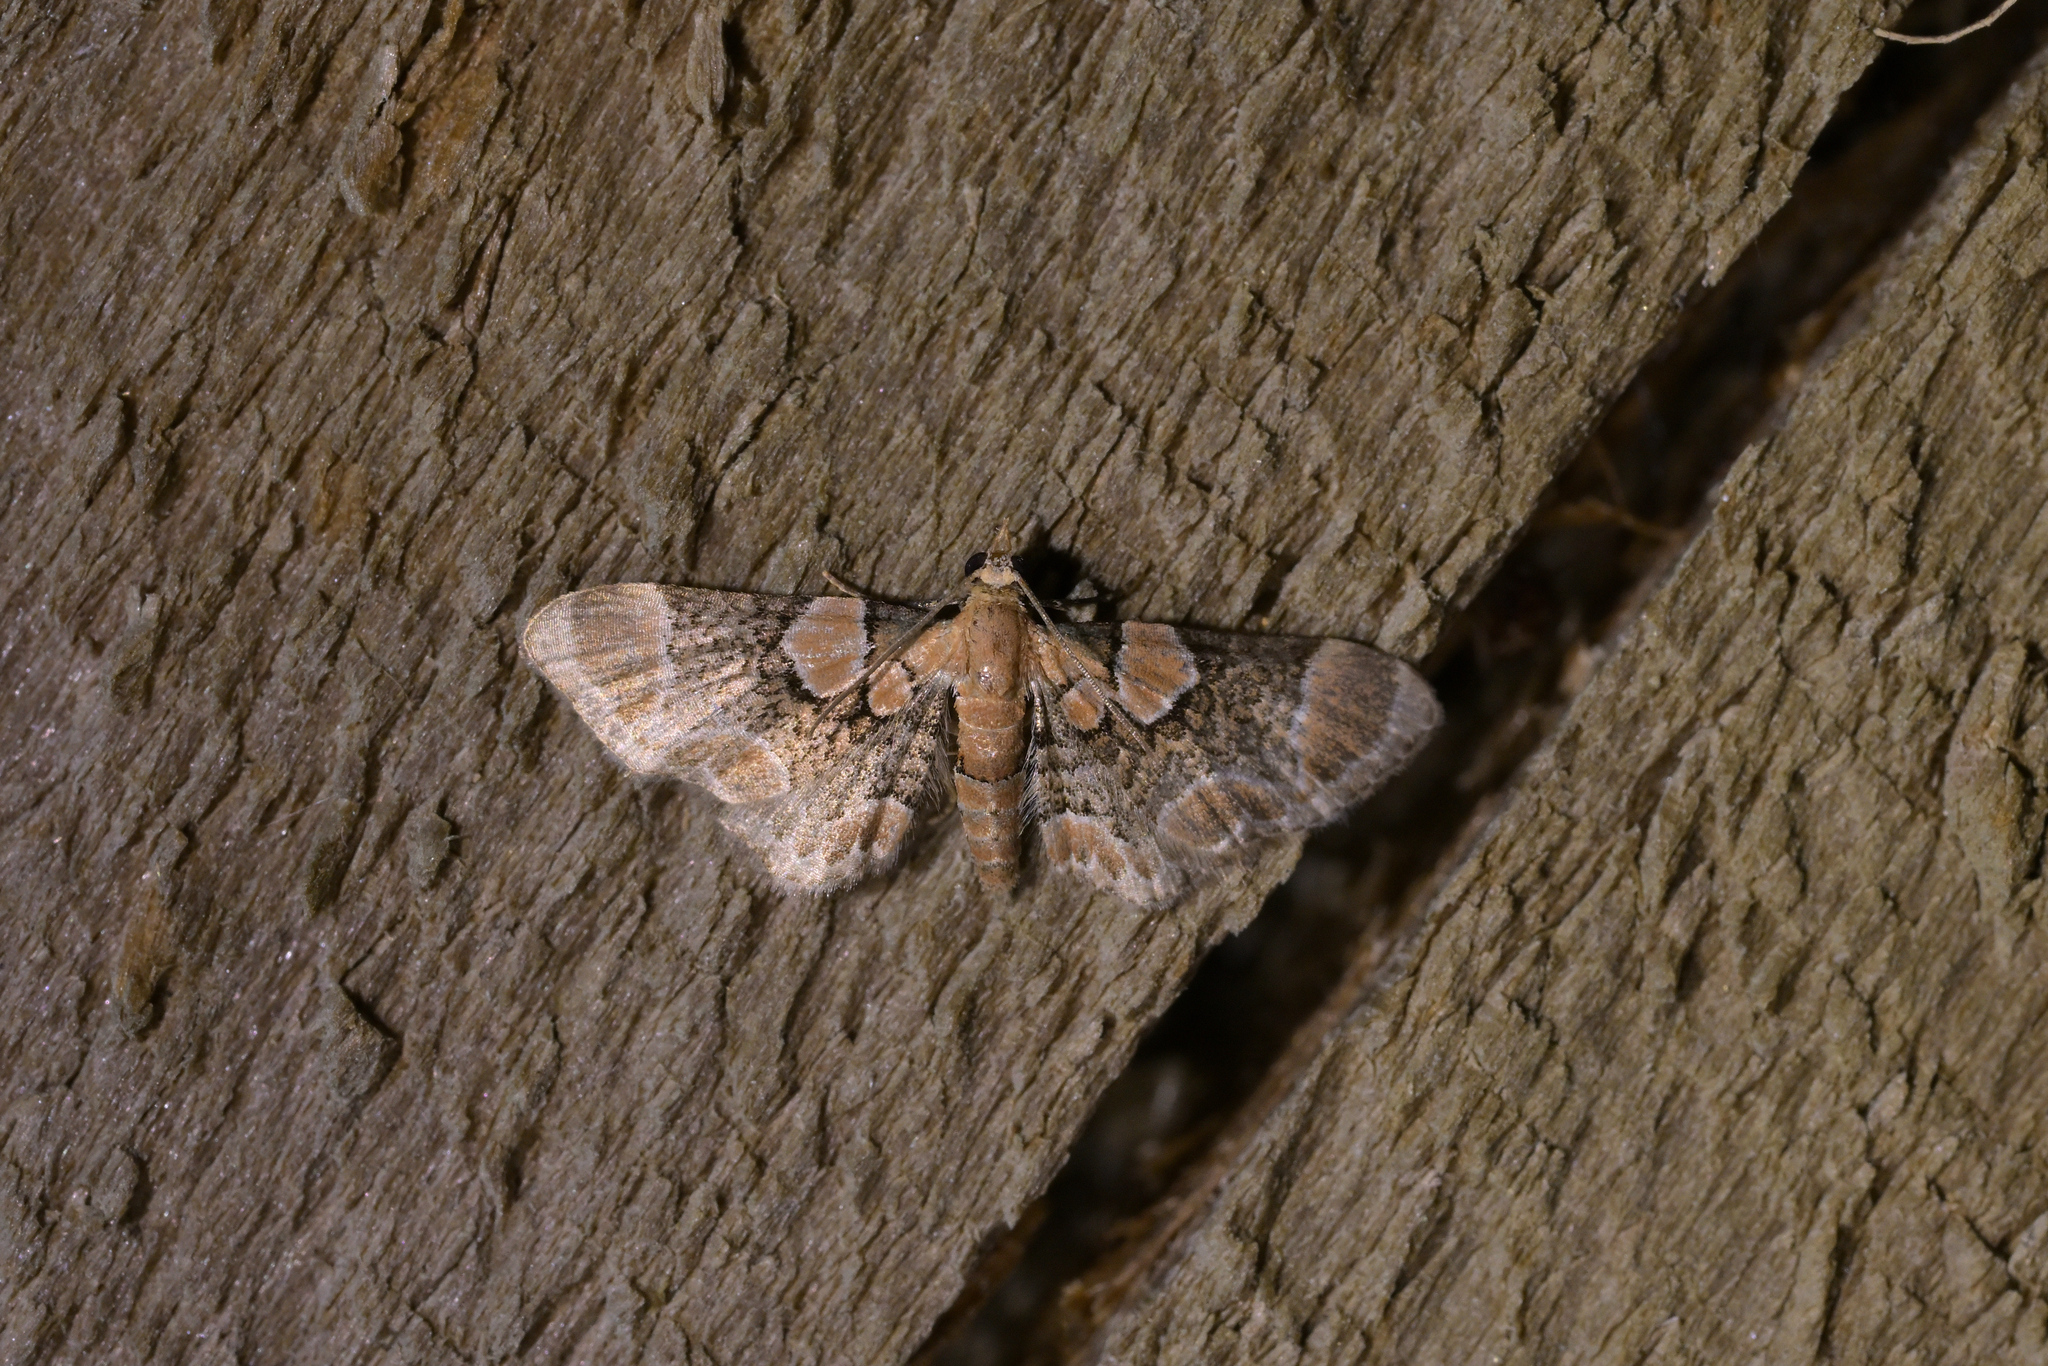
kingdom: Animalia
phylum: Arthropoda
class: Insecta
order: Lepidoptera
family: Geometridae
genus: Chloroclystis
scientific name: Chloroclystis
